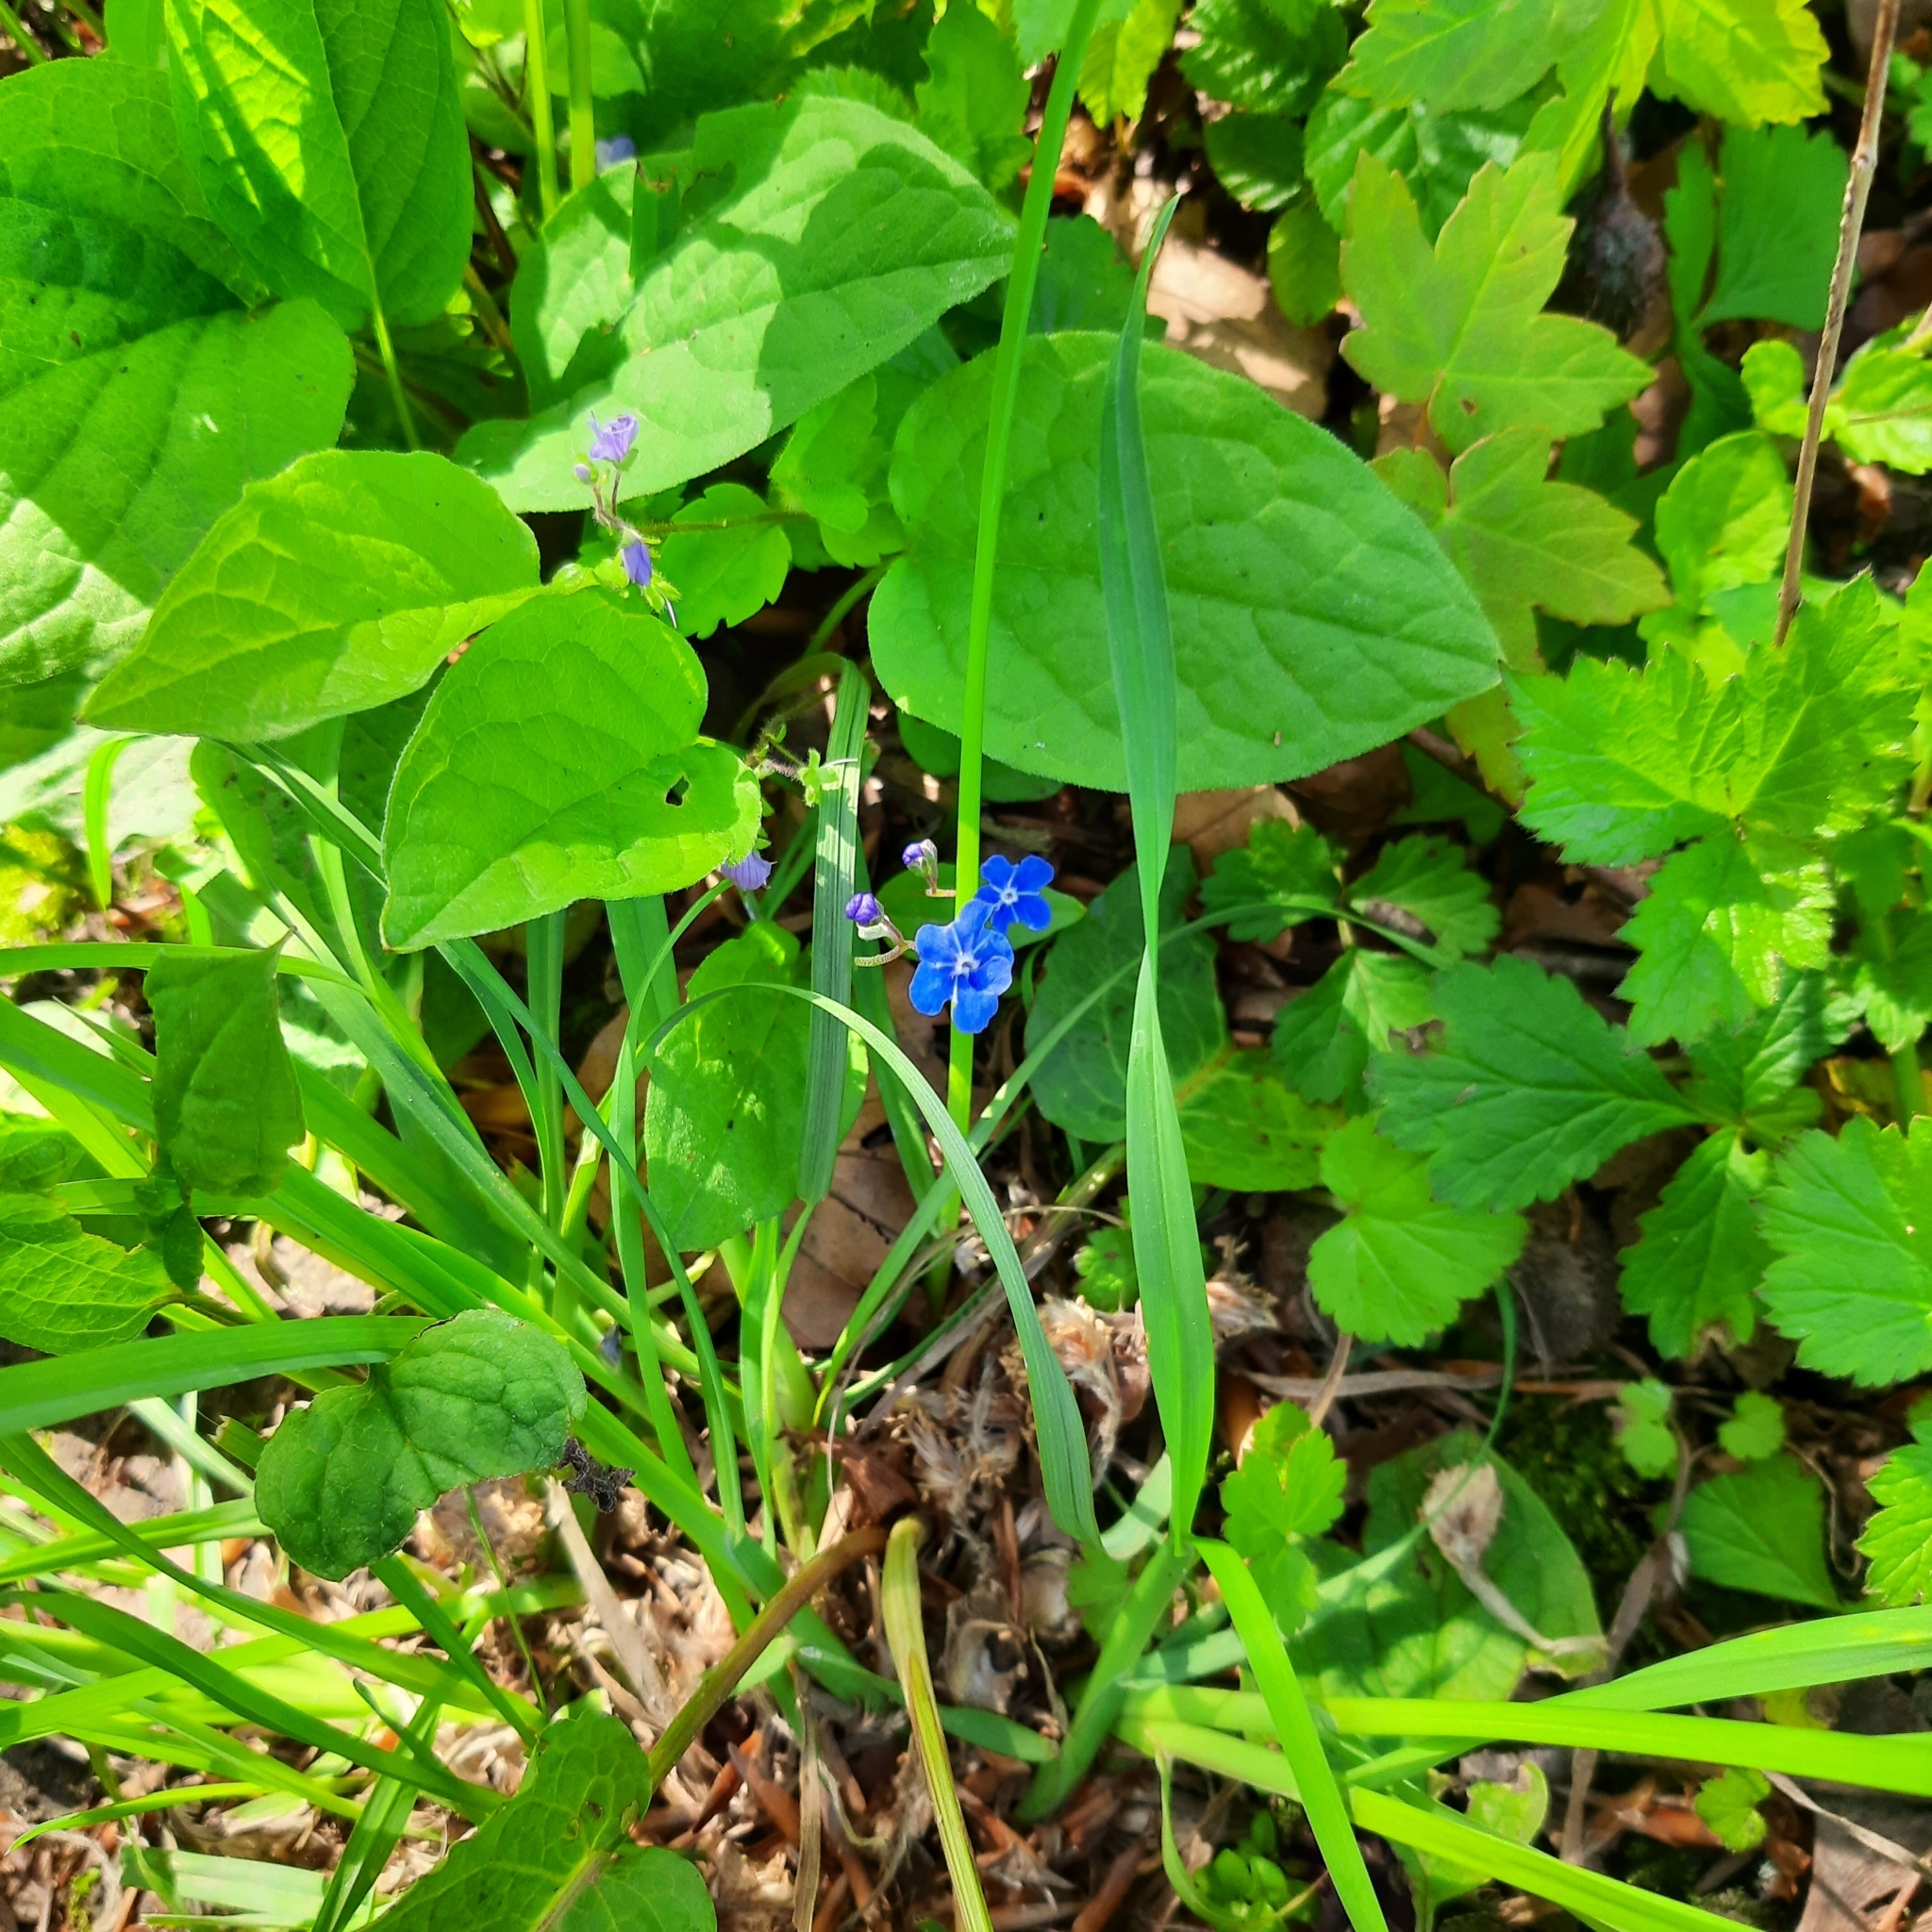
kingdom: Plantae
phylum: Tracheophyta
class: Magnoliopsida
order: Boraginales
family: Boraginaceae
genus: Omphalodes
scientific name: Omphalodes verna
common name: Blue-eyed-mary
